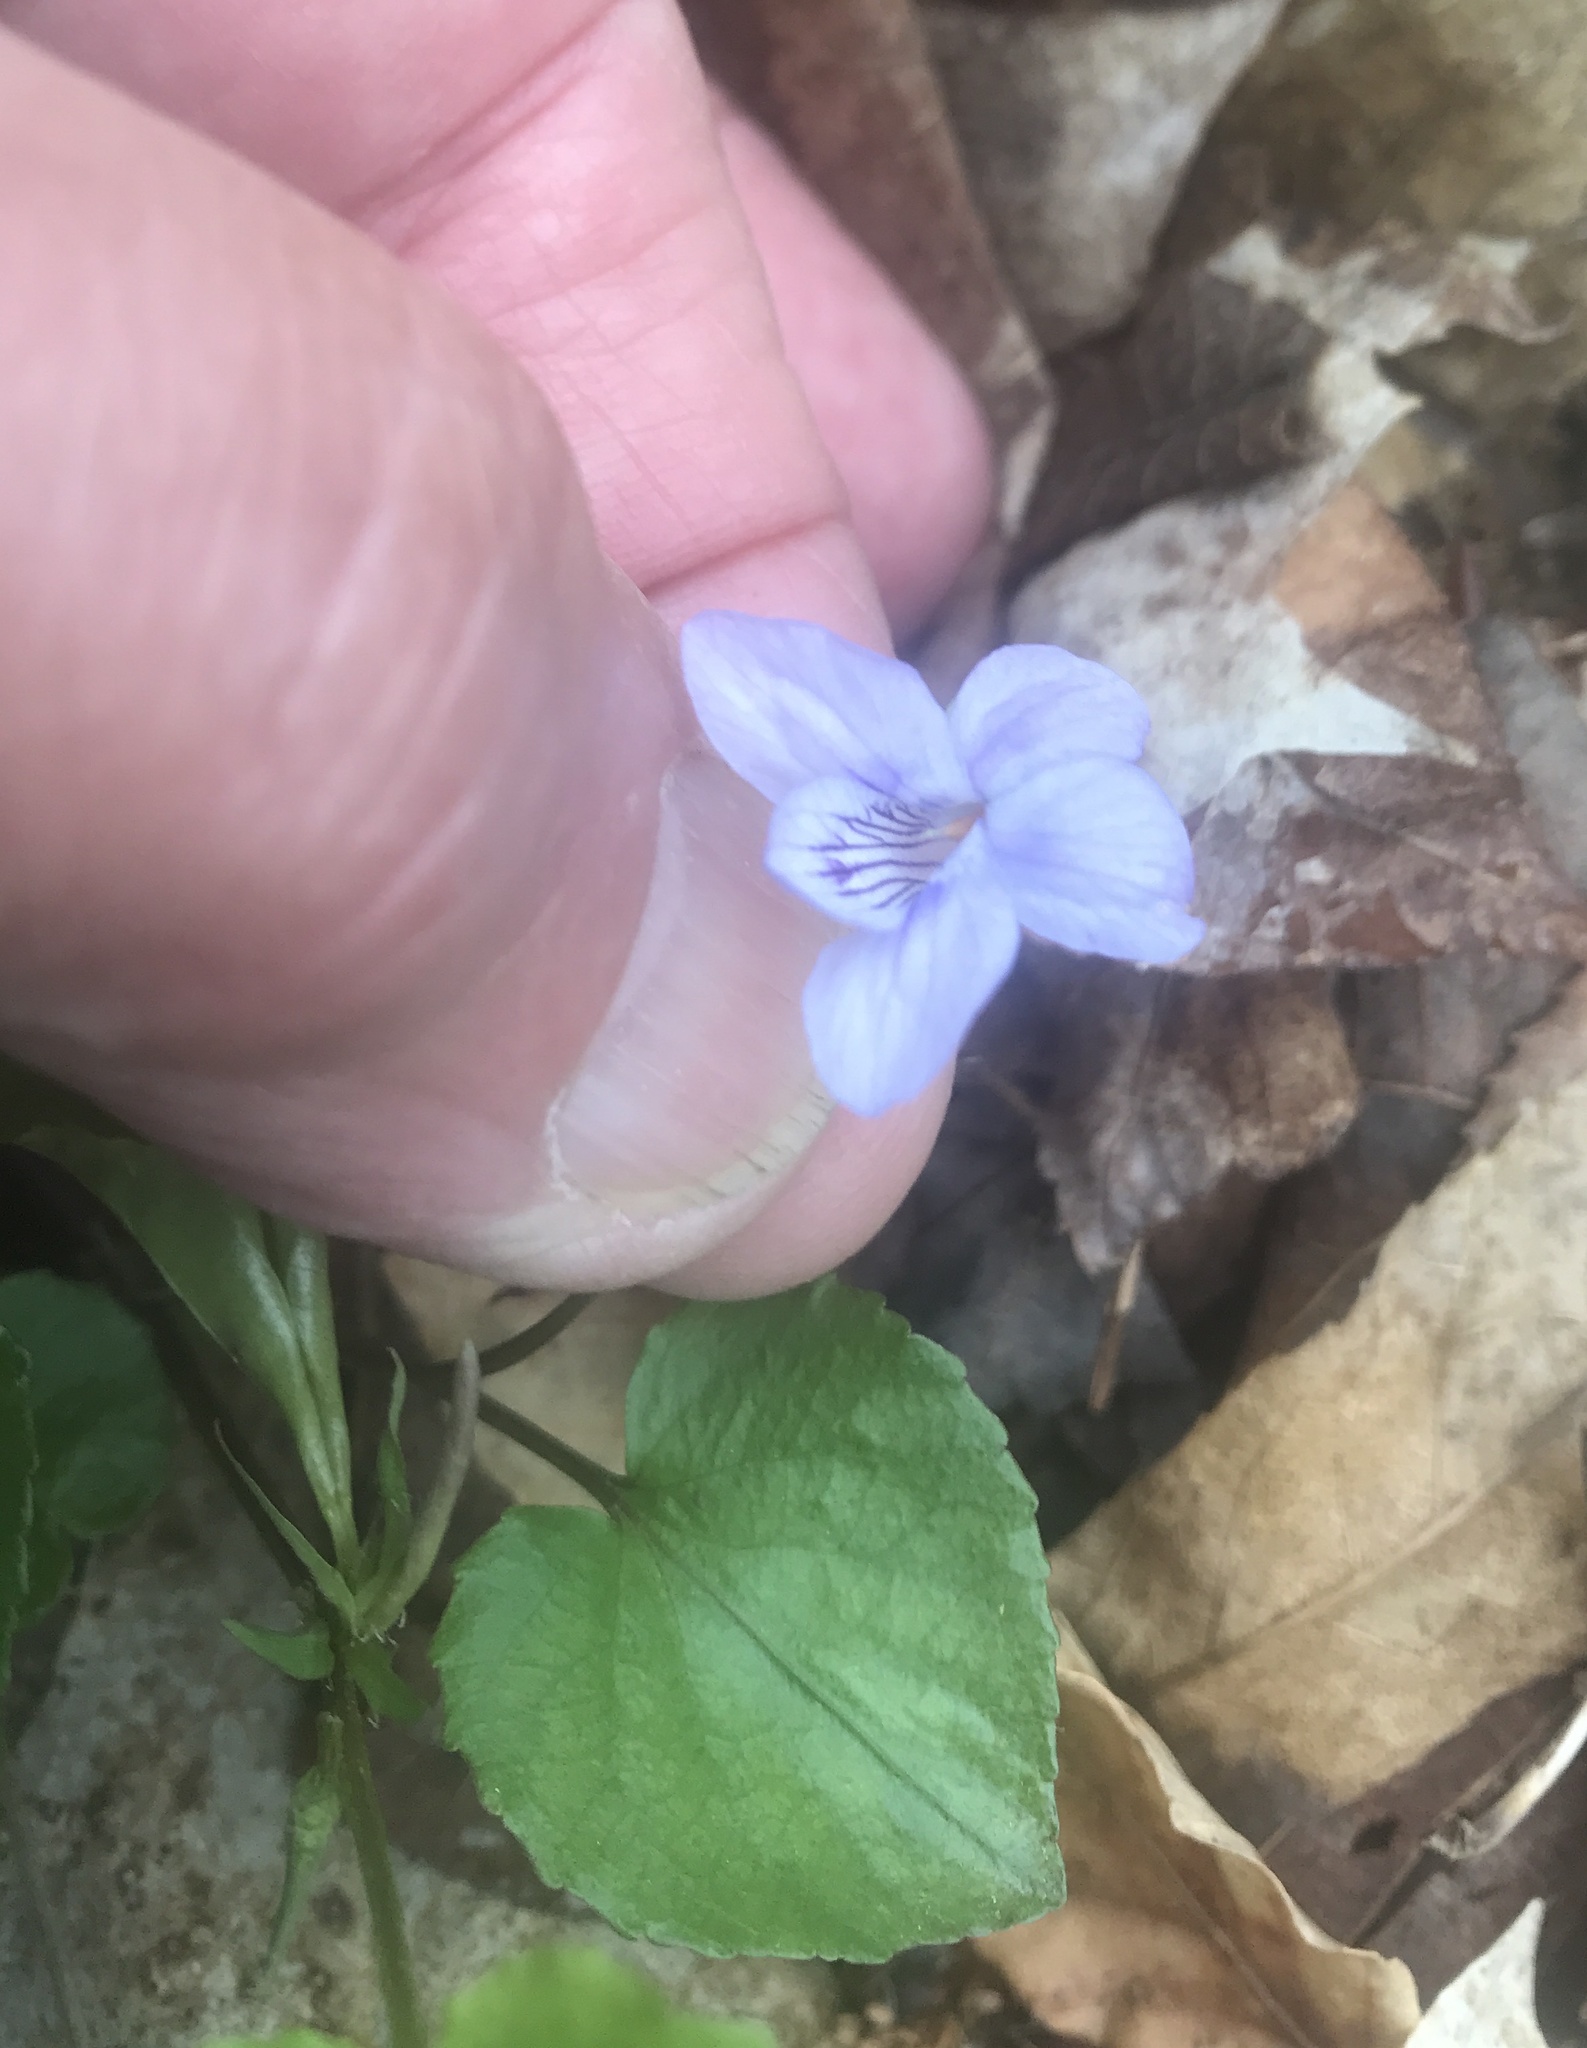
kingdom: Plantae
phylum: Tracheophyta
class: Magnoliopsida
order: Malpighiales
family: Violaceae
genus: Viola
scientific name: Viola rostrata
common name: Long-spur violet
